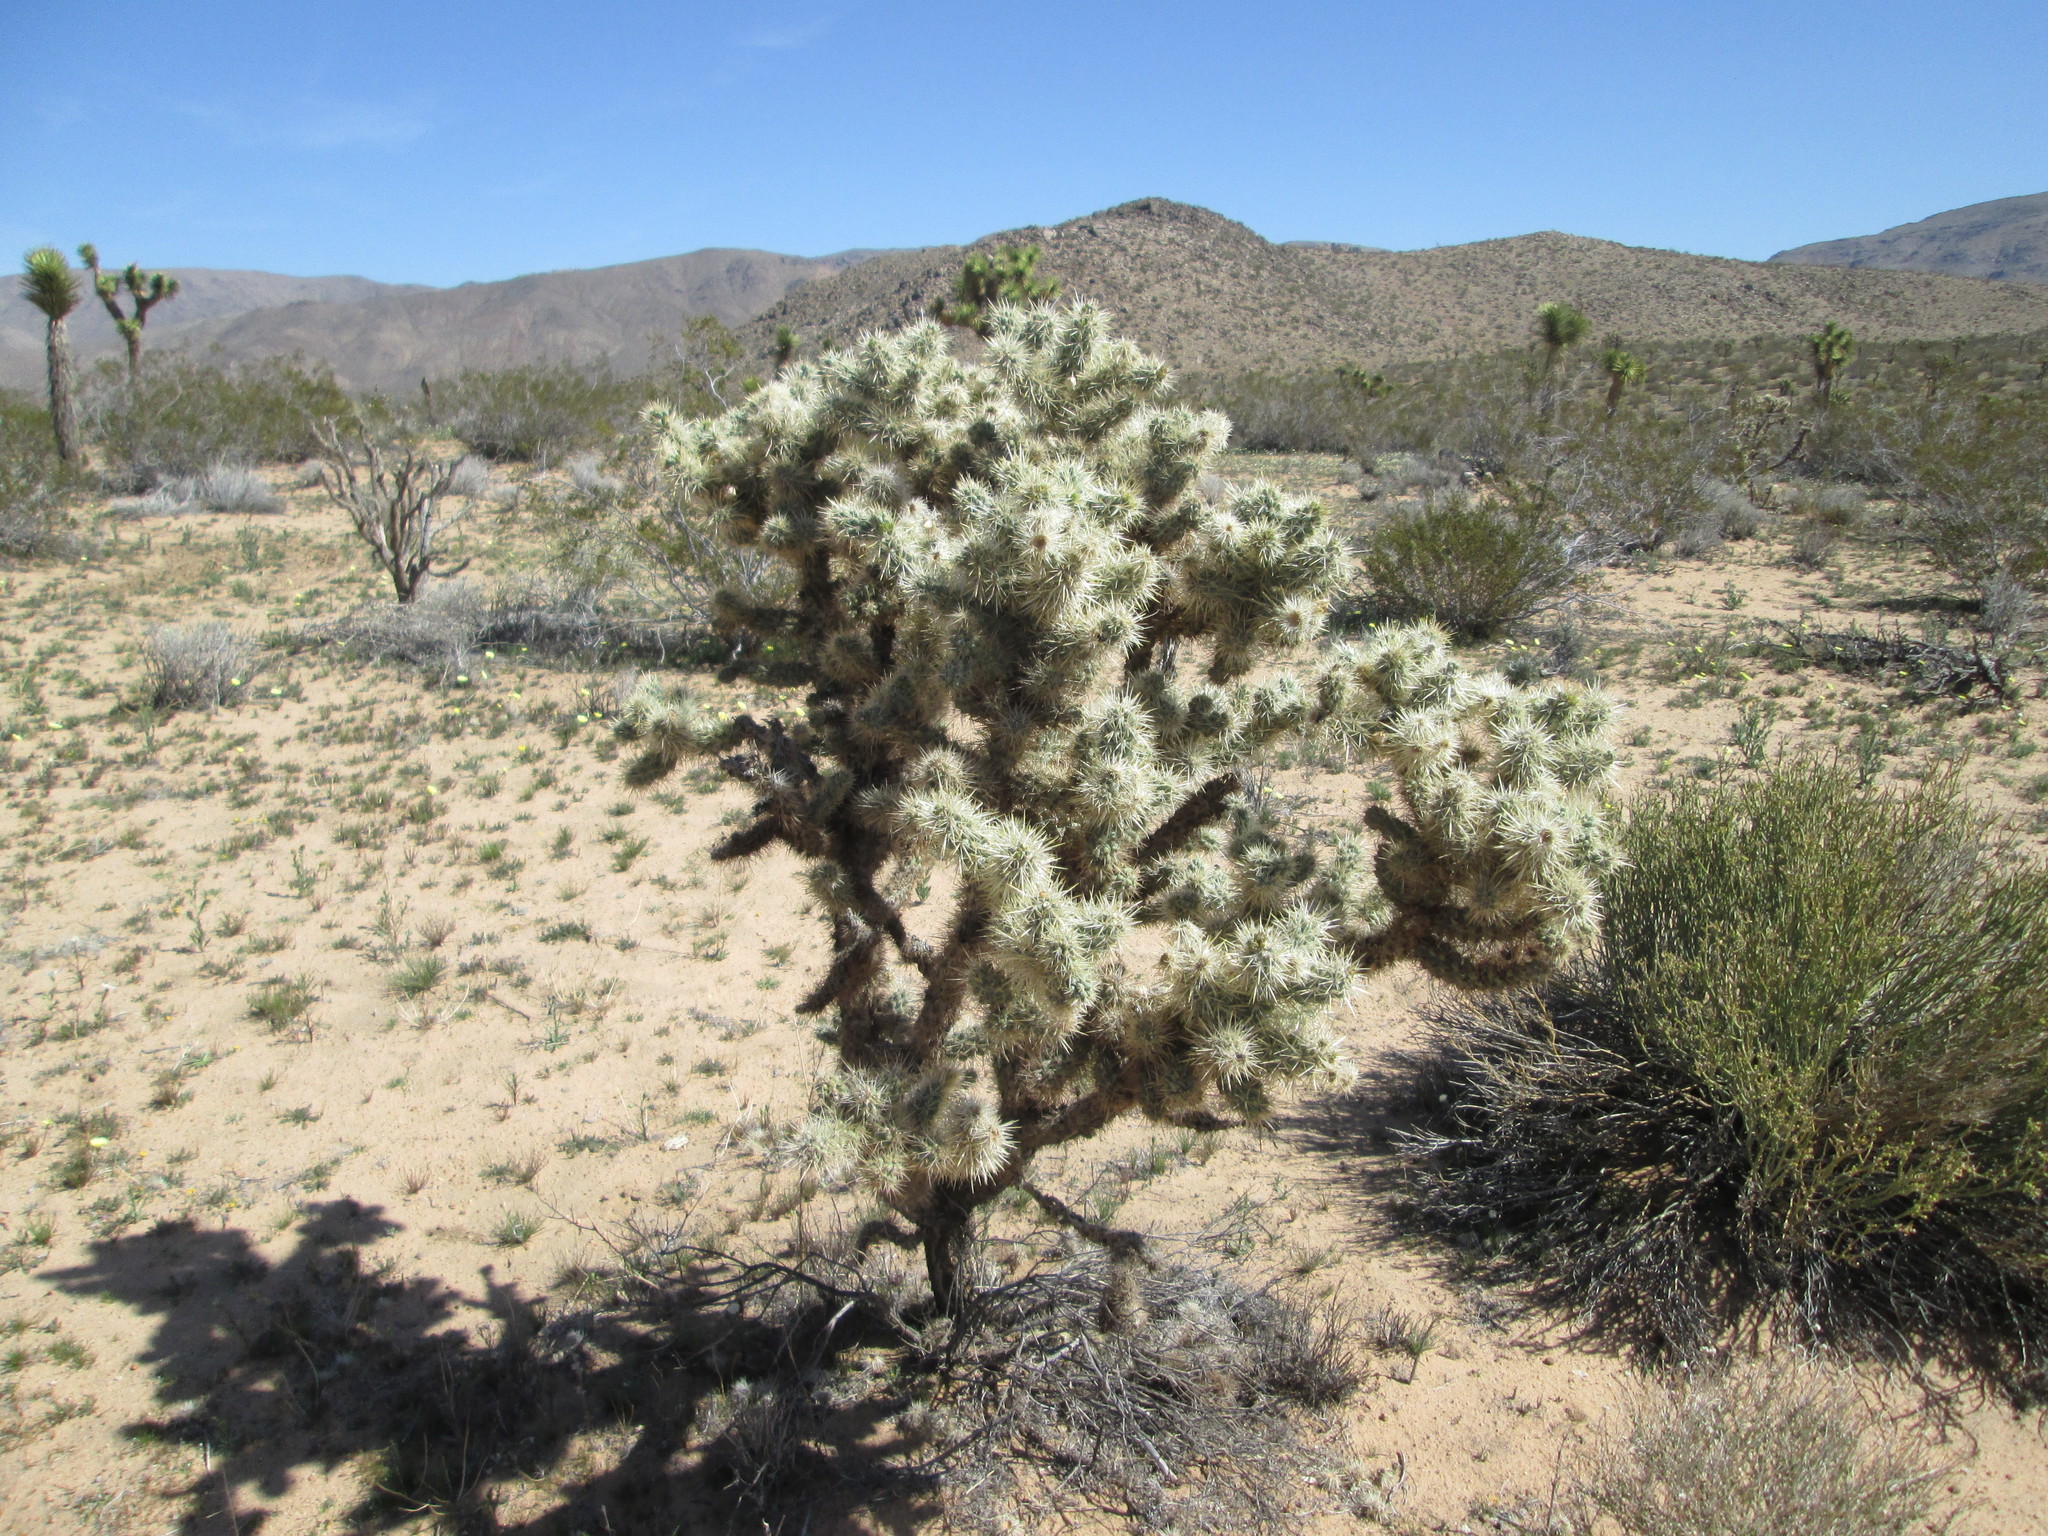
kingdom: Plantae
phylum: Tracheophyta
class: Magnoliopsida
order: Caryophyllales
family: Cactaceae
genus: Cylindropuntia
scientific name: Cylindropuntia echinocarpa
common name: Ground cholla
